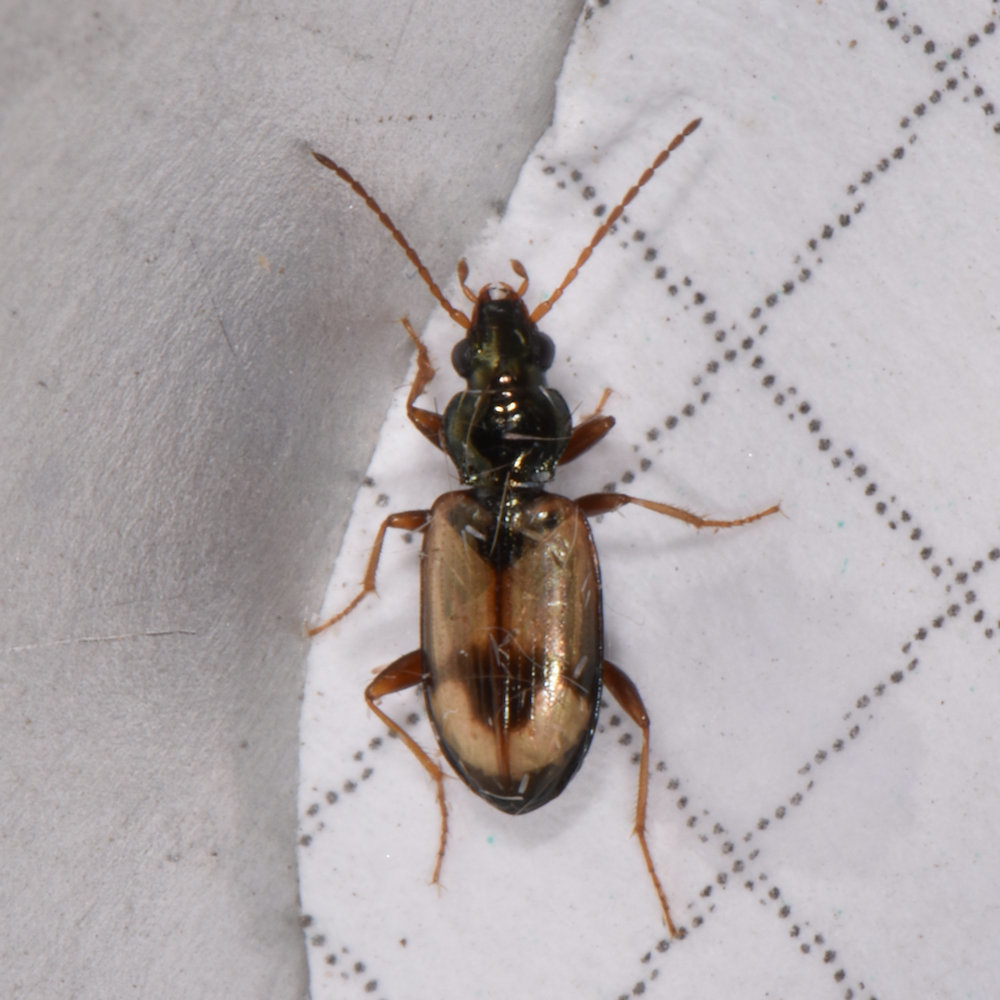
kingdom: Animalia
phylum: Arthropoda
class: Insecta
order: Coleoptera
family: Carabidae
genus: Bembidion
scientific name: Bembidion obscurellum
